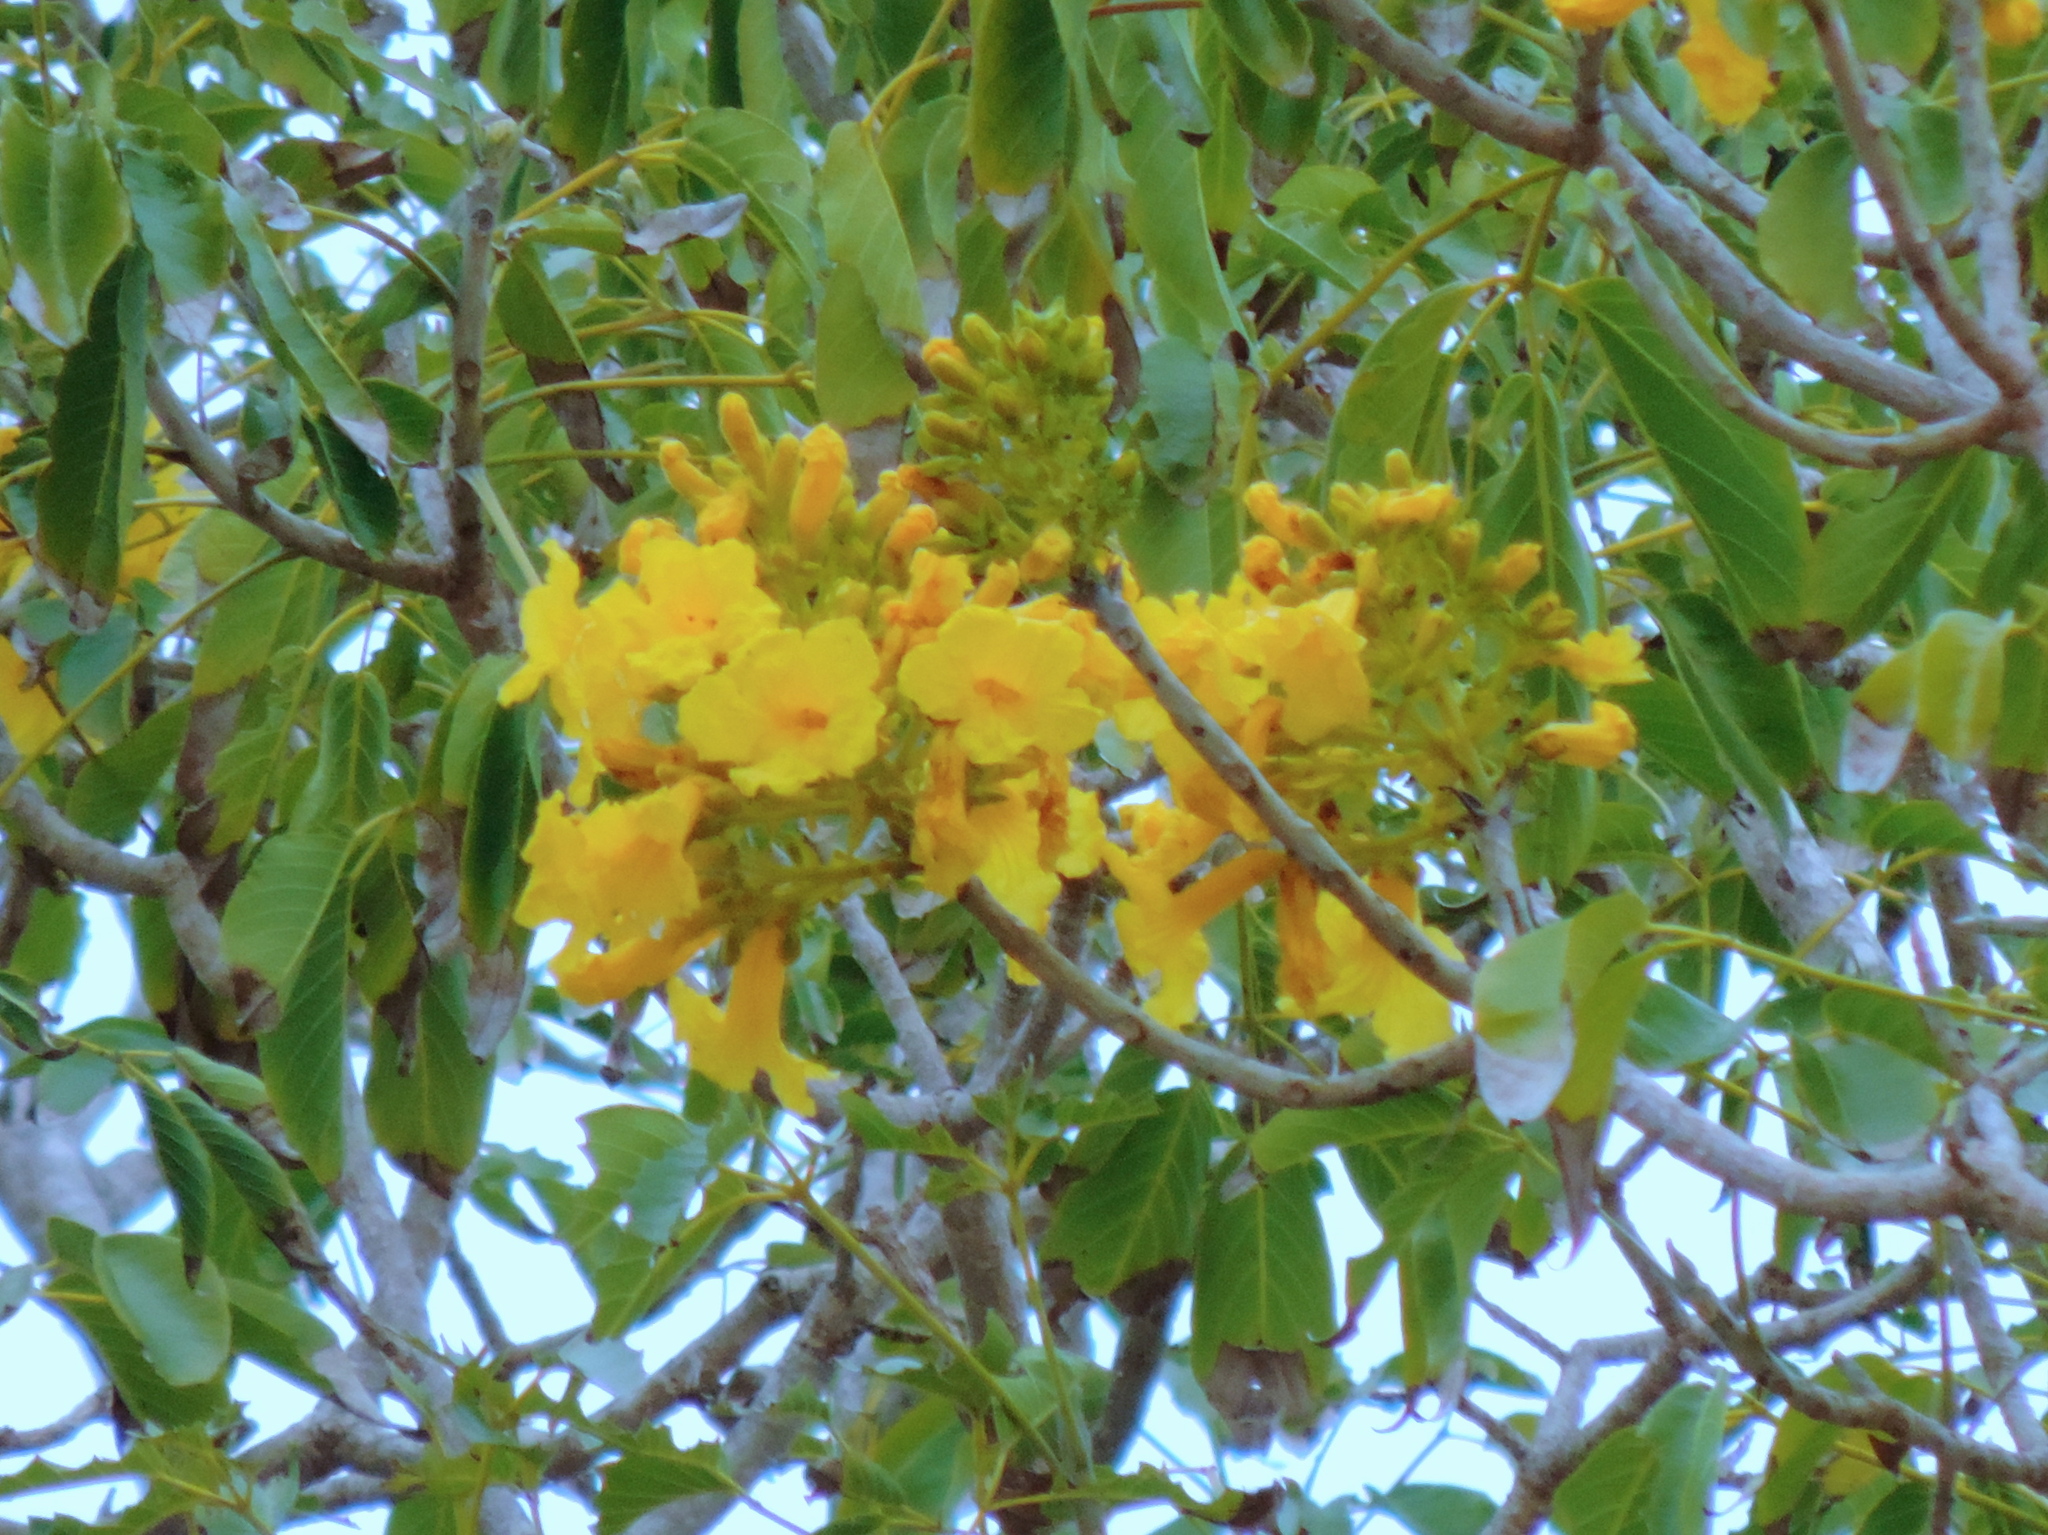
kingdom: Plantae
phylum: Tracheophyta
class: Magnoliopsida
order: Lamiales
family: Bignoniaceae
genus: Handroanthus
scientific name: Handroanthus chrysanthus
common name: Trumpet trees
